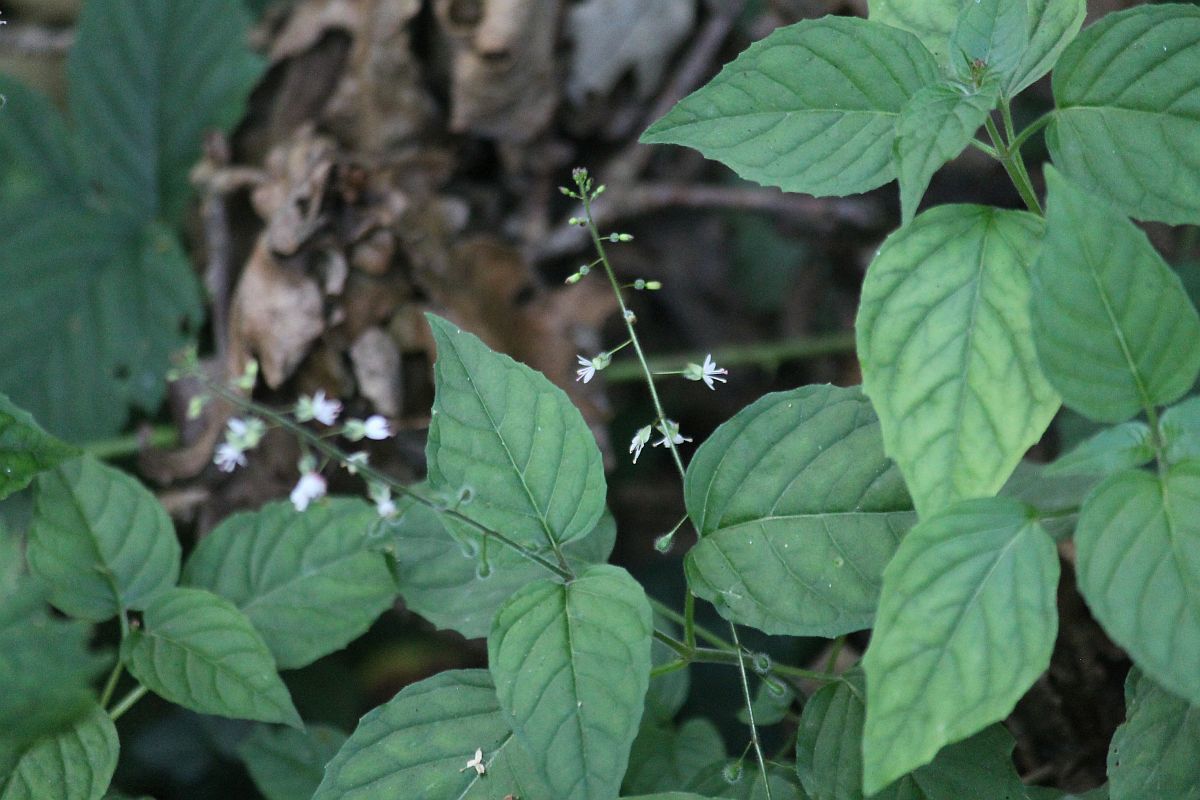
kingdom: Plantae
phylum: Tracheophyta
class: Magnoliopsida
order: Myrtales
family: Onagraceae
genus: Circaea
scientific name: Circaea lutetiana
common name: Enchanter's-nightshade
